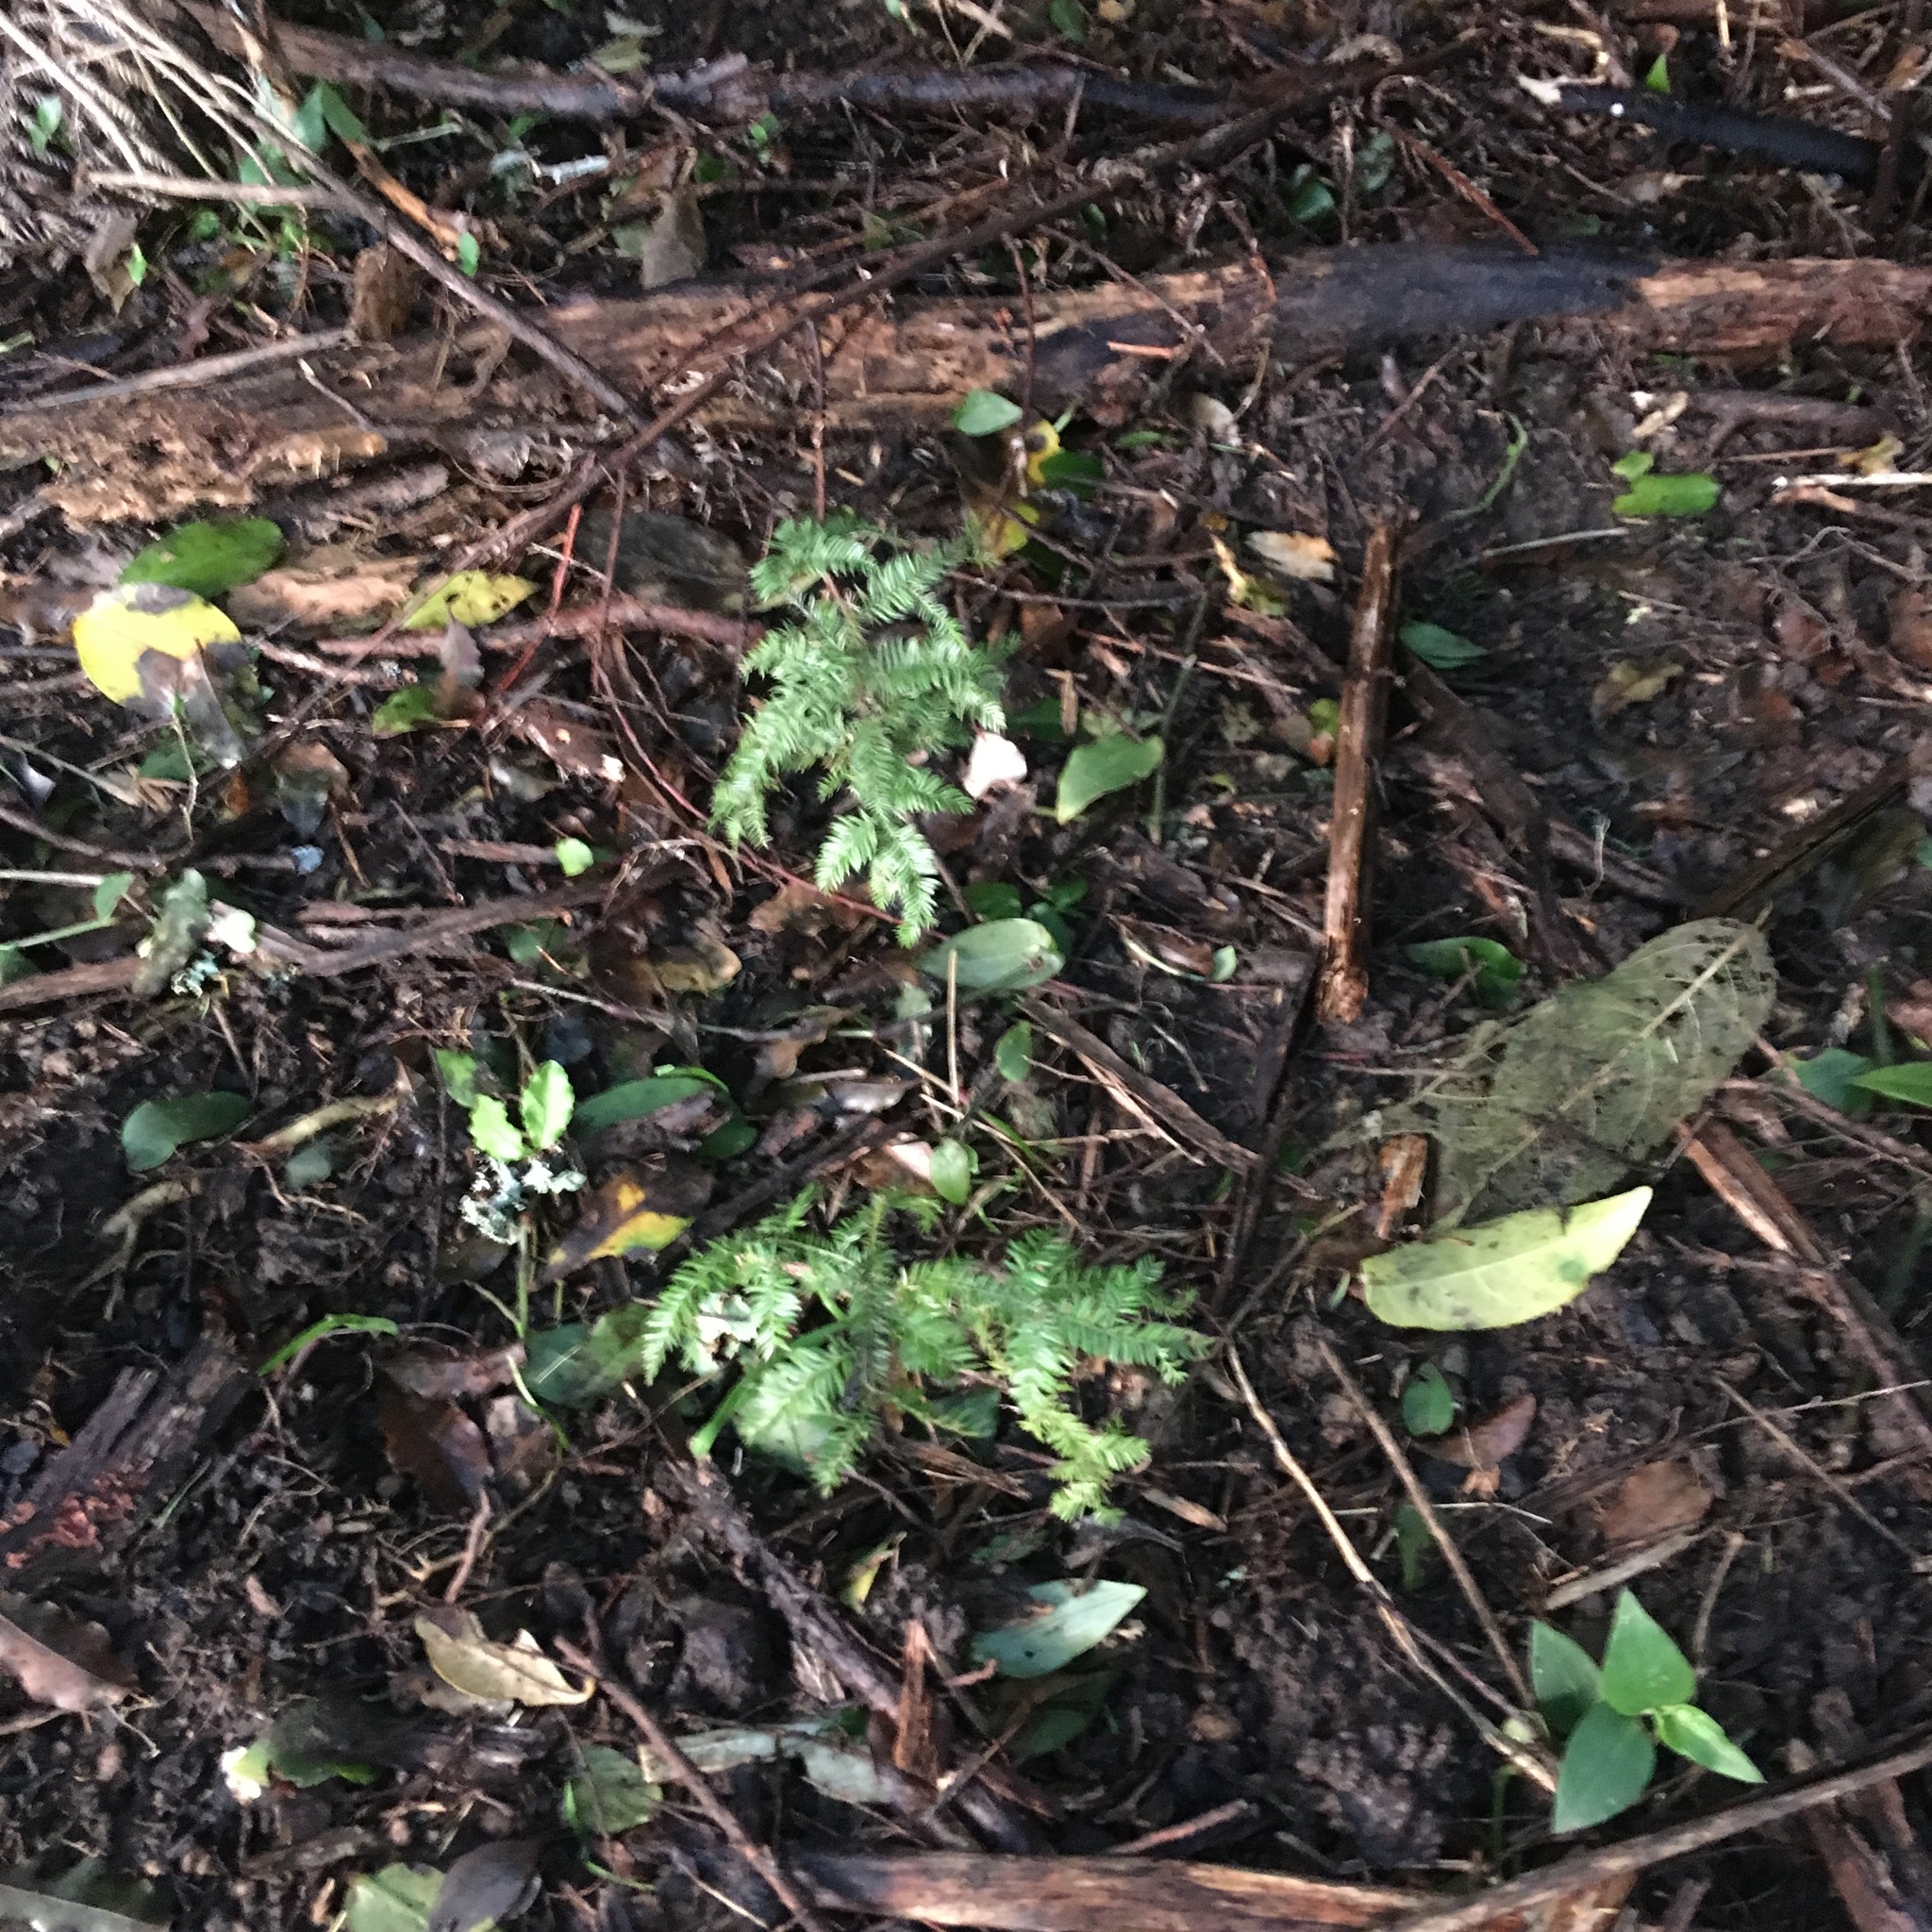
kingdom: Plantae
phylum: Tracheophyta
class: Pinopsida
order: Pinales
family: Podocarpaceae
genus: Dacrycarpus
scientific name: Dacrycarpus dacrydioides
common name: White pine
